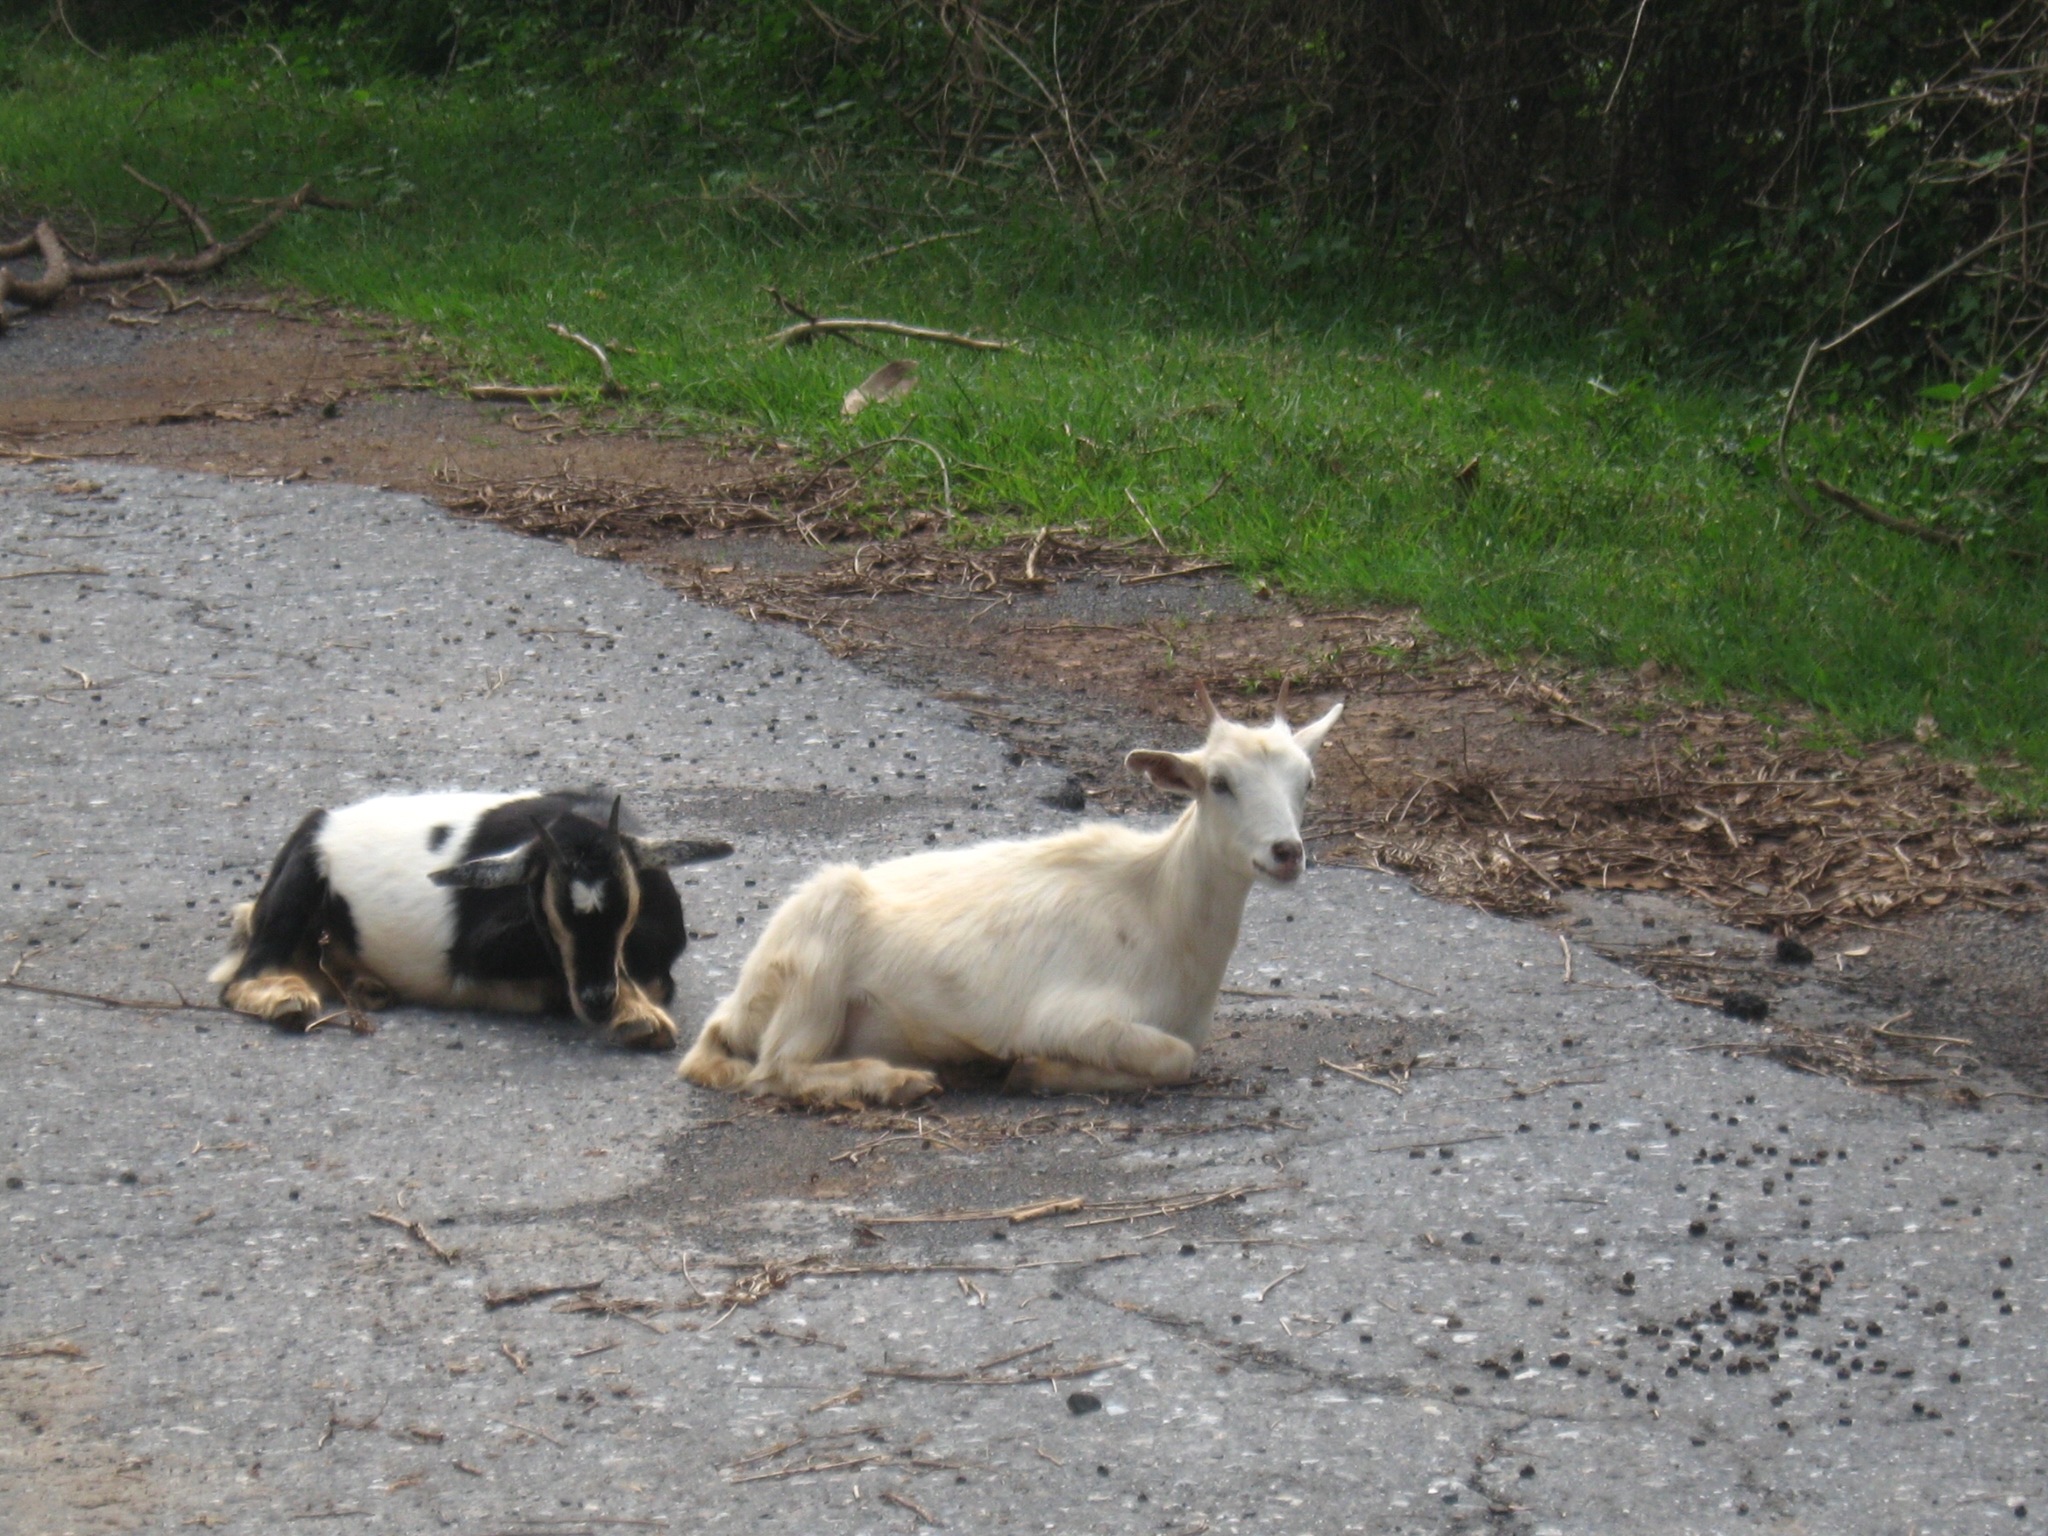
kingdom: Animalia
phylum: Chordata
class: Mammalia
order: Artiodactyla
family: Bovidae
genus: Capra
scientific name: Capra hircus
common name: Domestic goat
